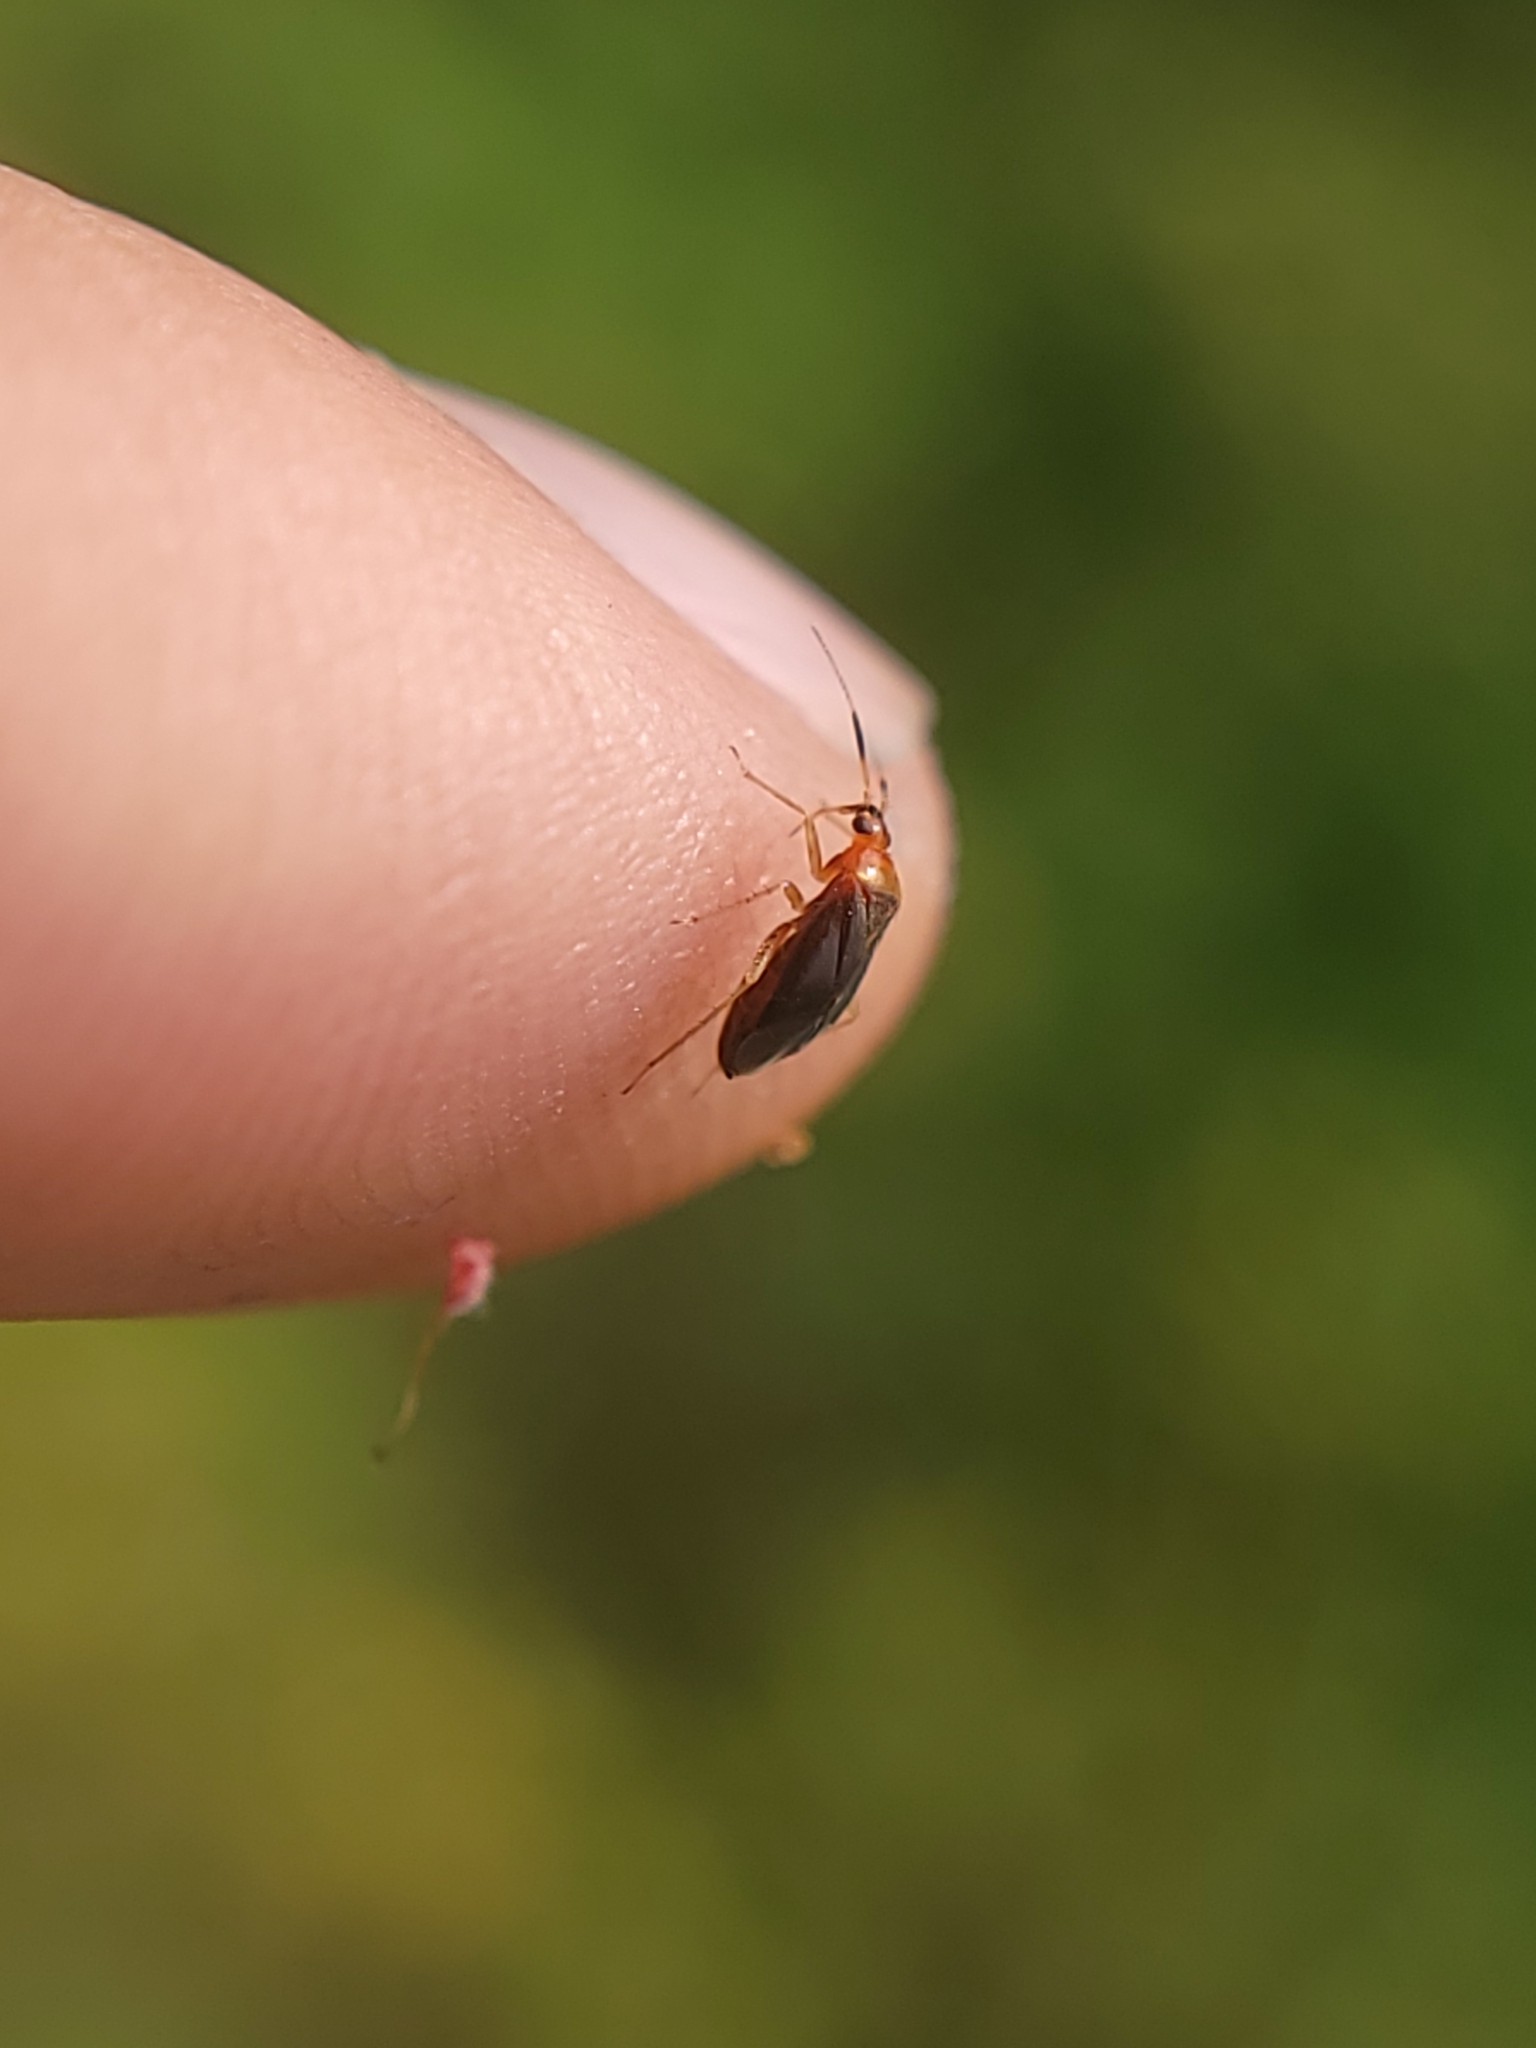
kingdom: Animalia
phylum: Arthropoda
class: Insecta
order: Hemiptera
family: Miridae
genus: Rhinocapsus
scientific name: Rhinocapsus rubricans
